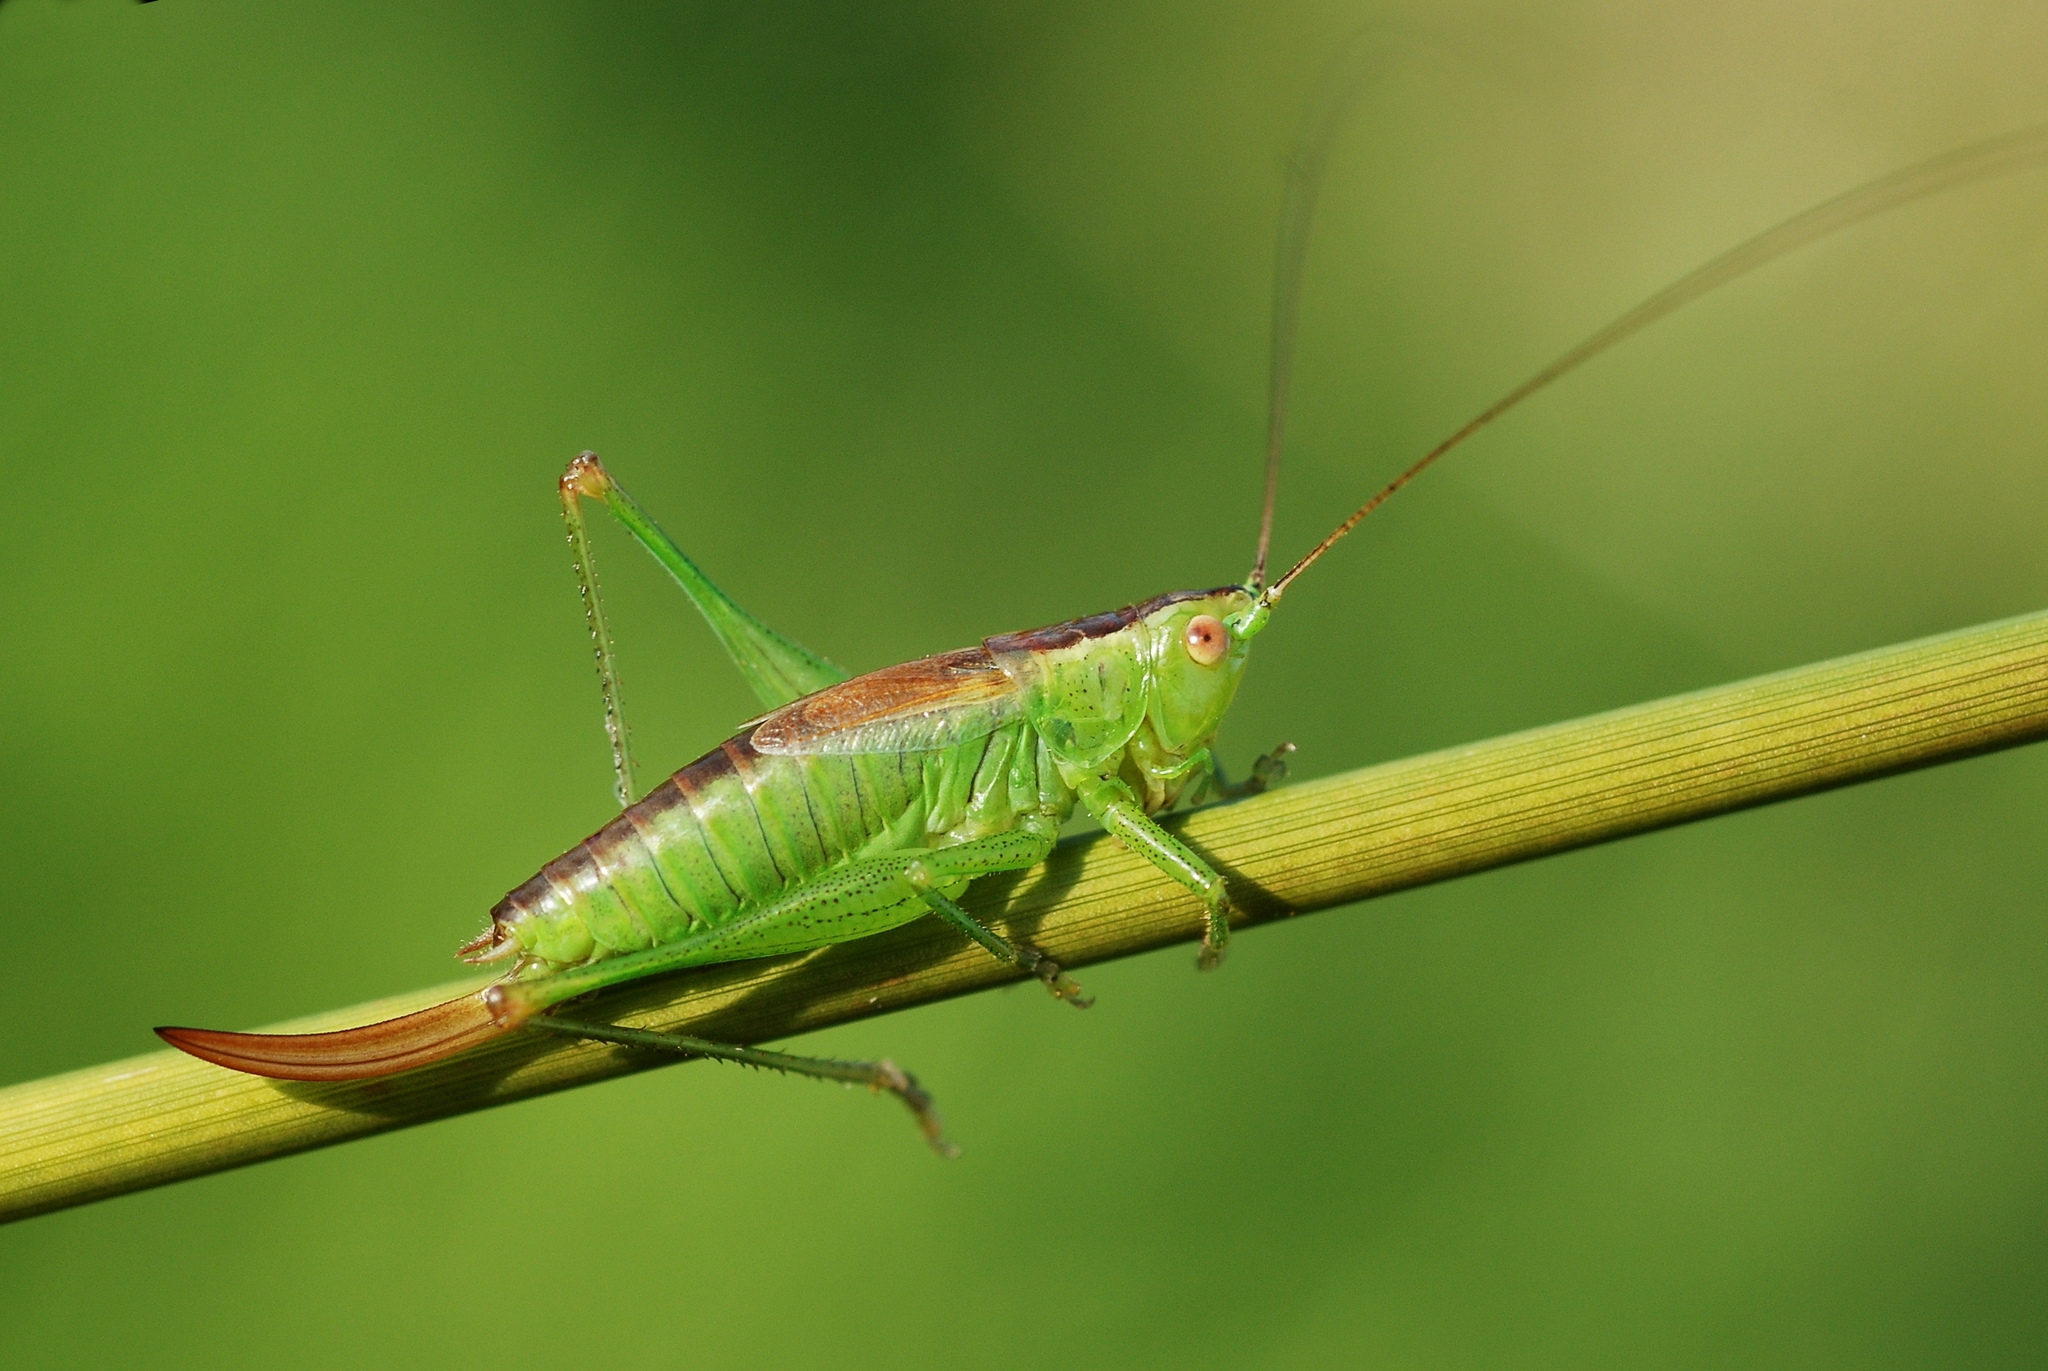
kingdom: Animalia
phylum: Arthropoda
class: Insecta
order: Orthoptera
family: Tettigoniidae
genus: Conocephalus
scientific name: Conocephalus dorsalis
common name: Short-winged conehead
